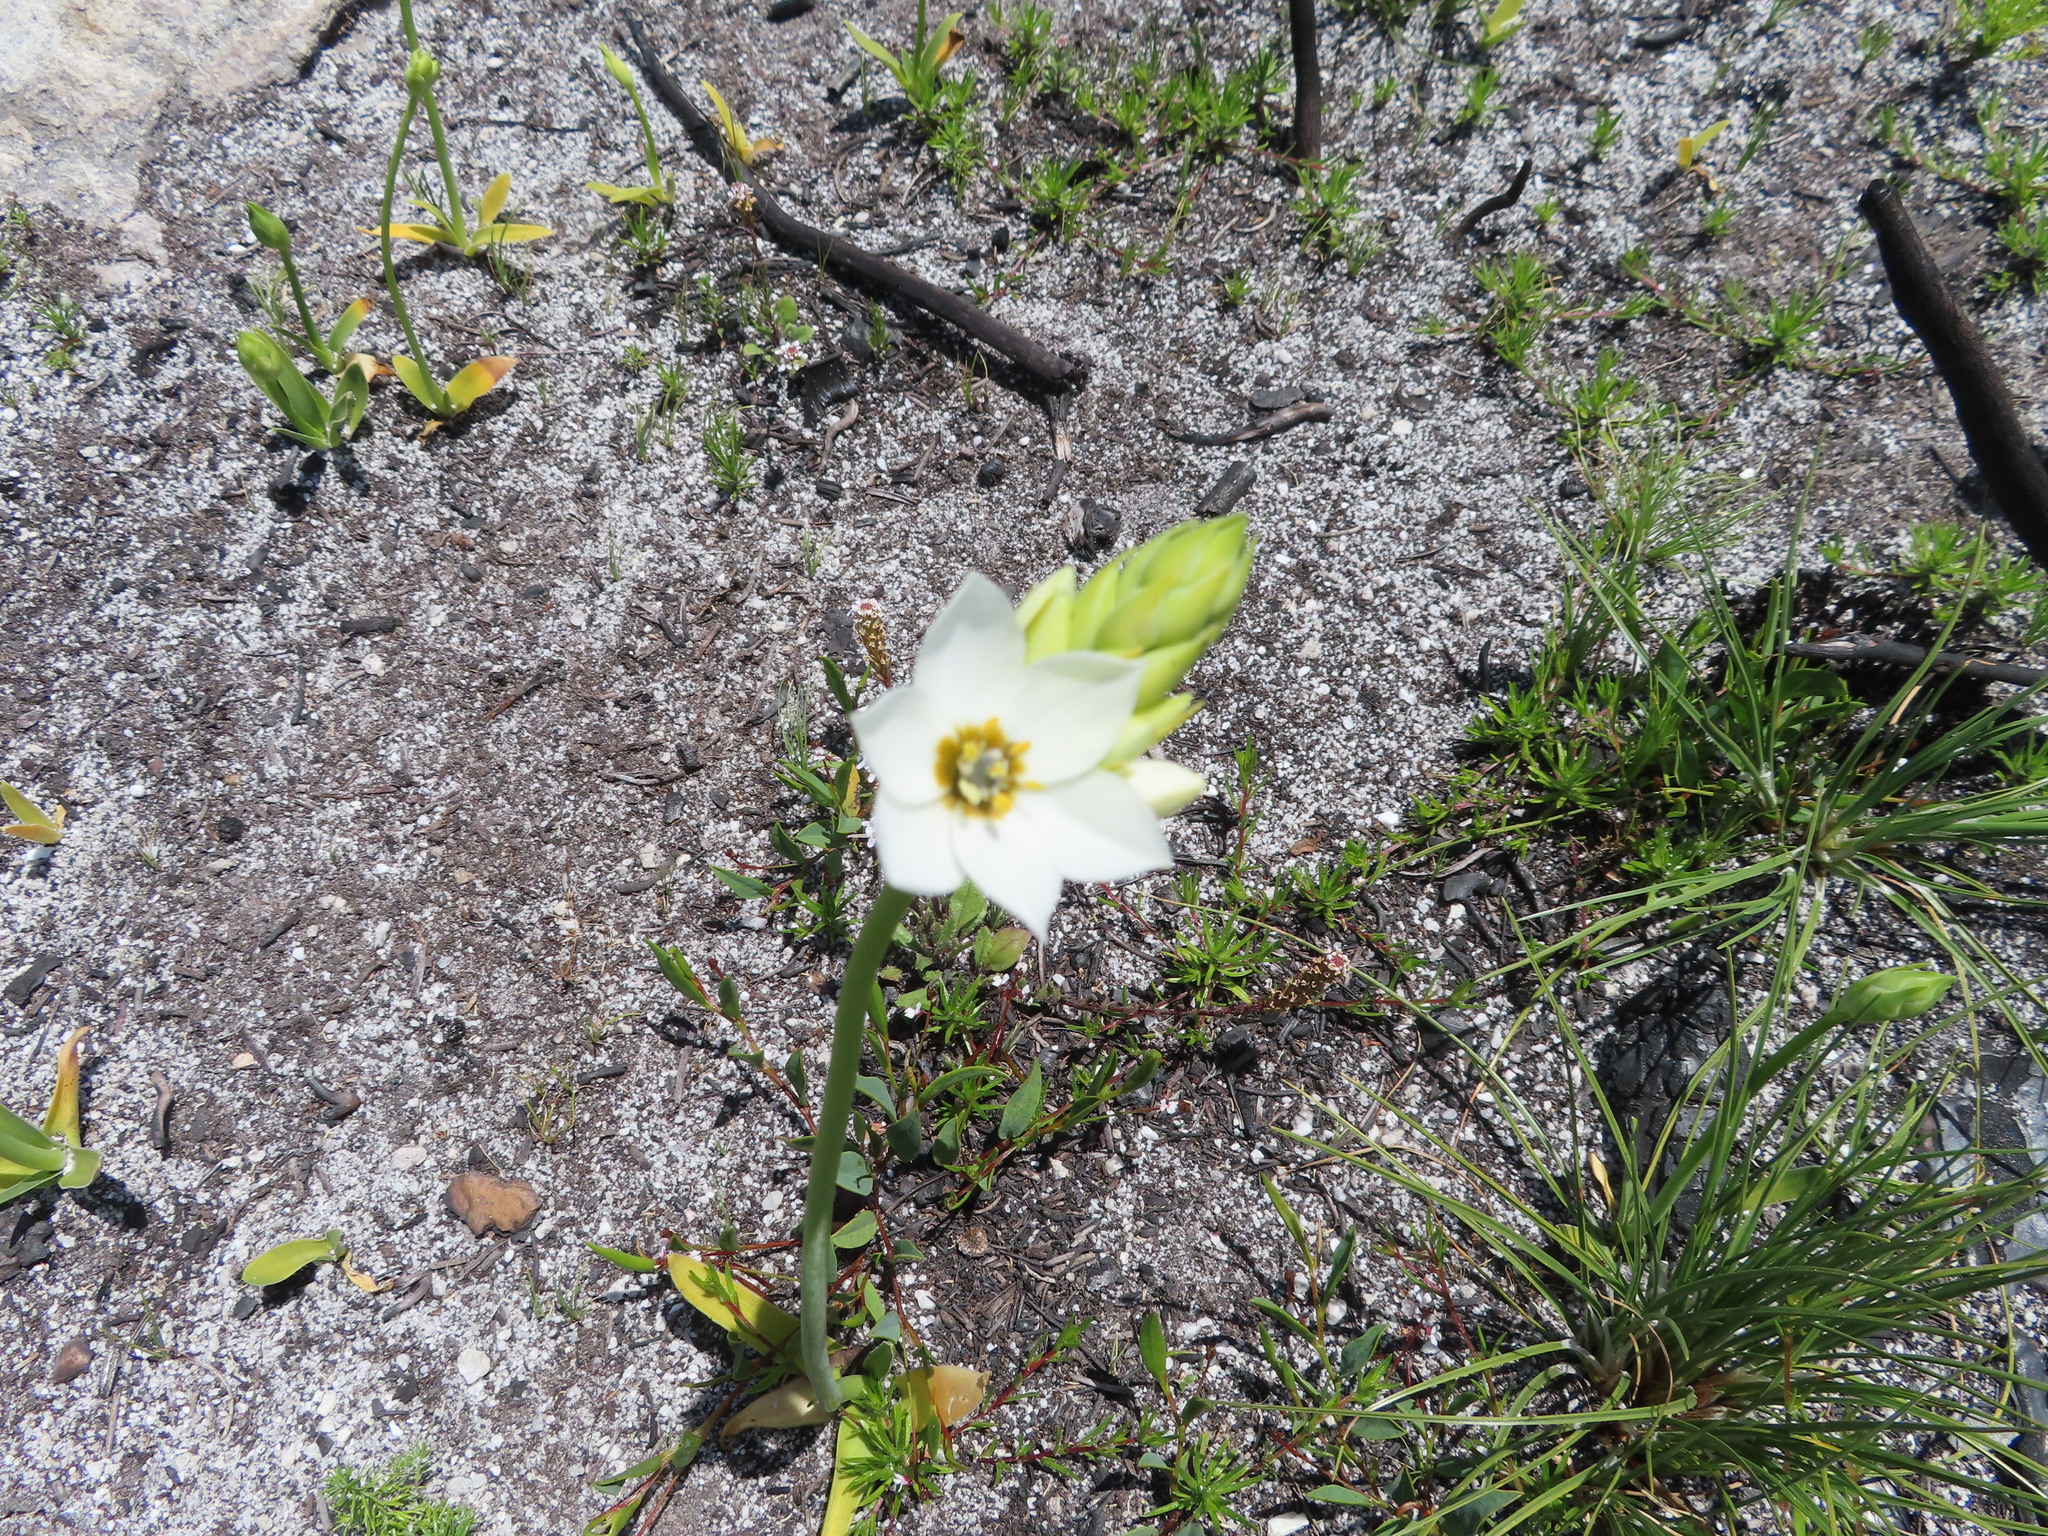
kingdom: Plantae
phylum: Tracheophyta
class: Liliopsida
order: Asparagales
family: Asparagaceae
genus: Ornithogalum
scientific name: Ornithogalum thyrsoides
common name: Chincherinchee
